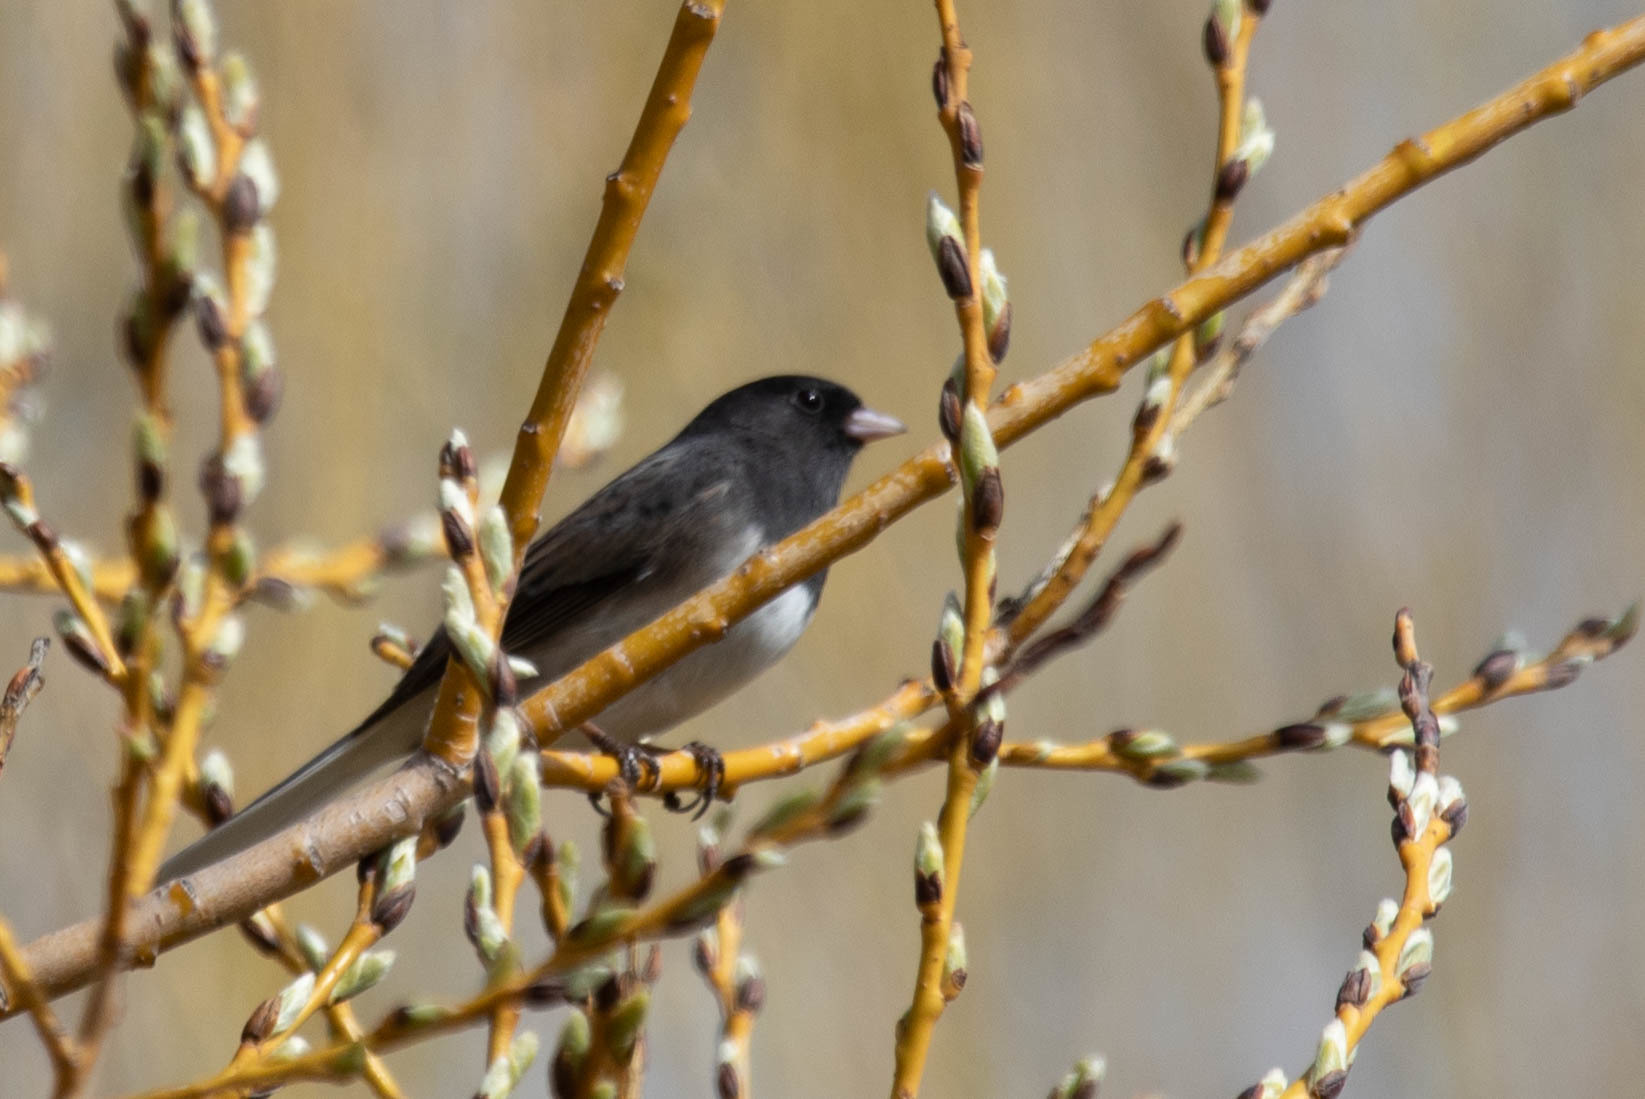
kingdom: Animalia
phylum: Chordata
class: Aves
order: Passeriformes
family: Passerellidae
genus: Junco
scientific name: Junco hyemalis
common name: Dark-eyed junco
